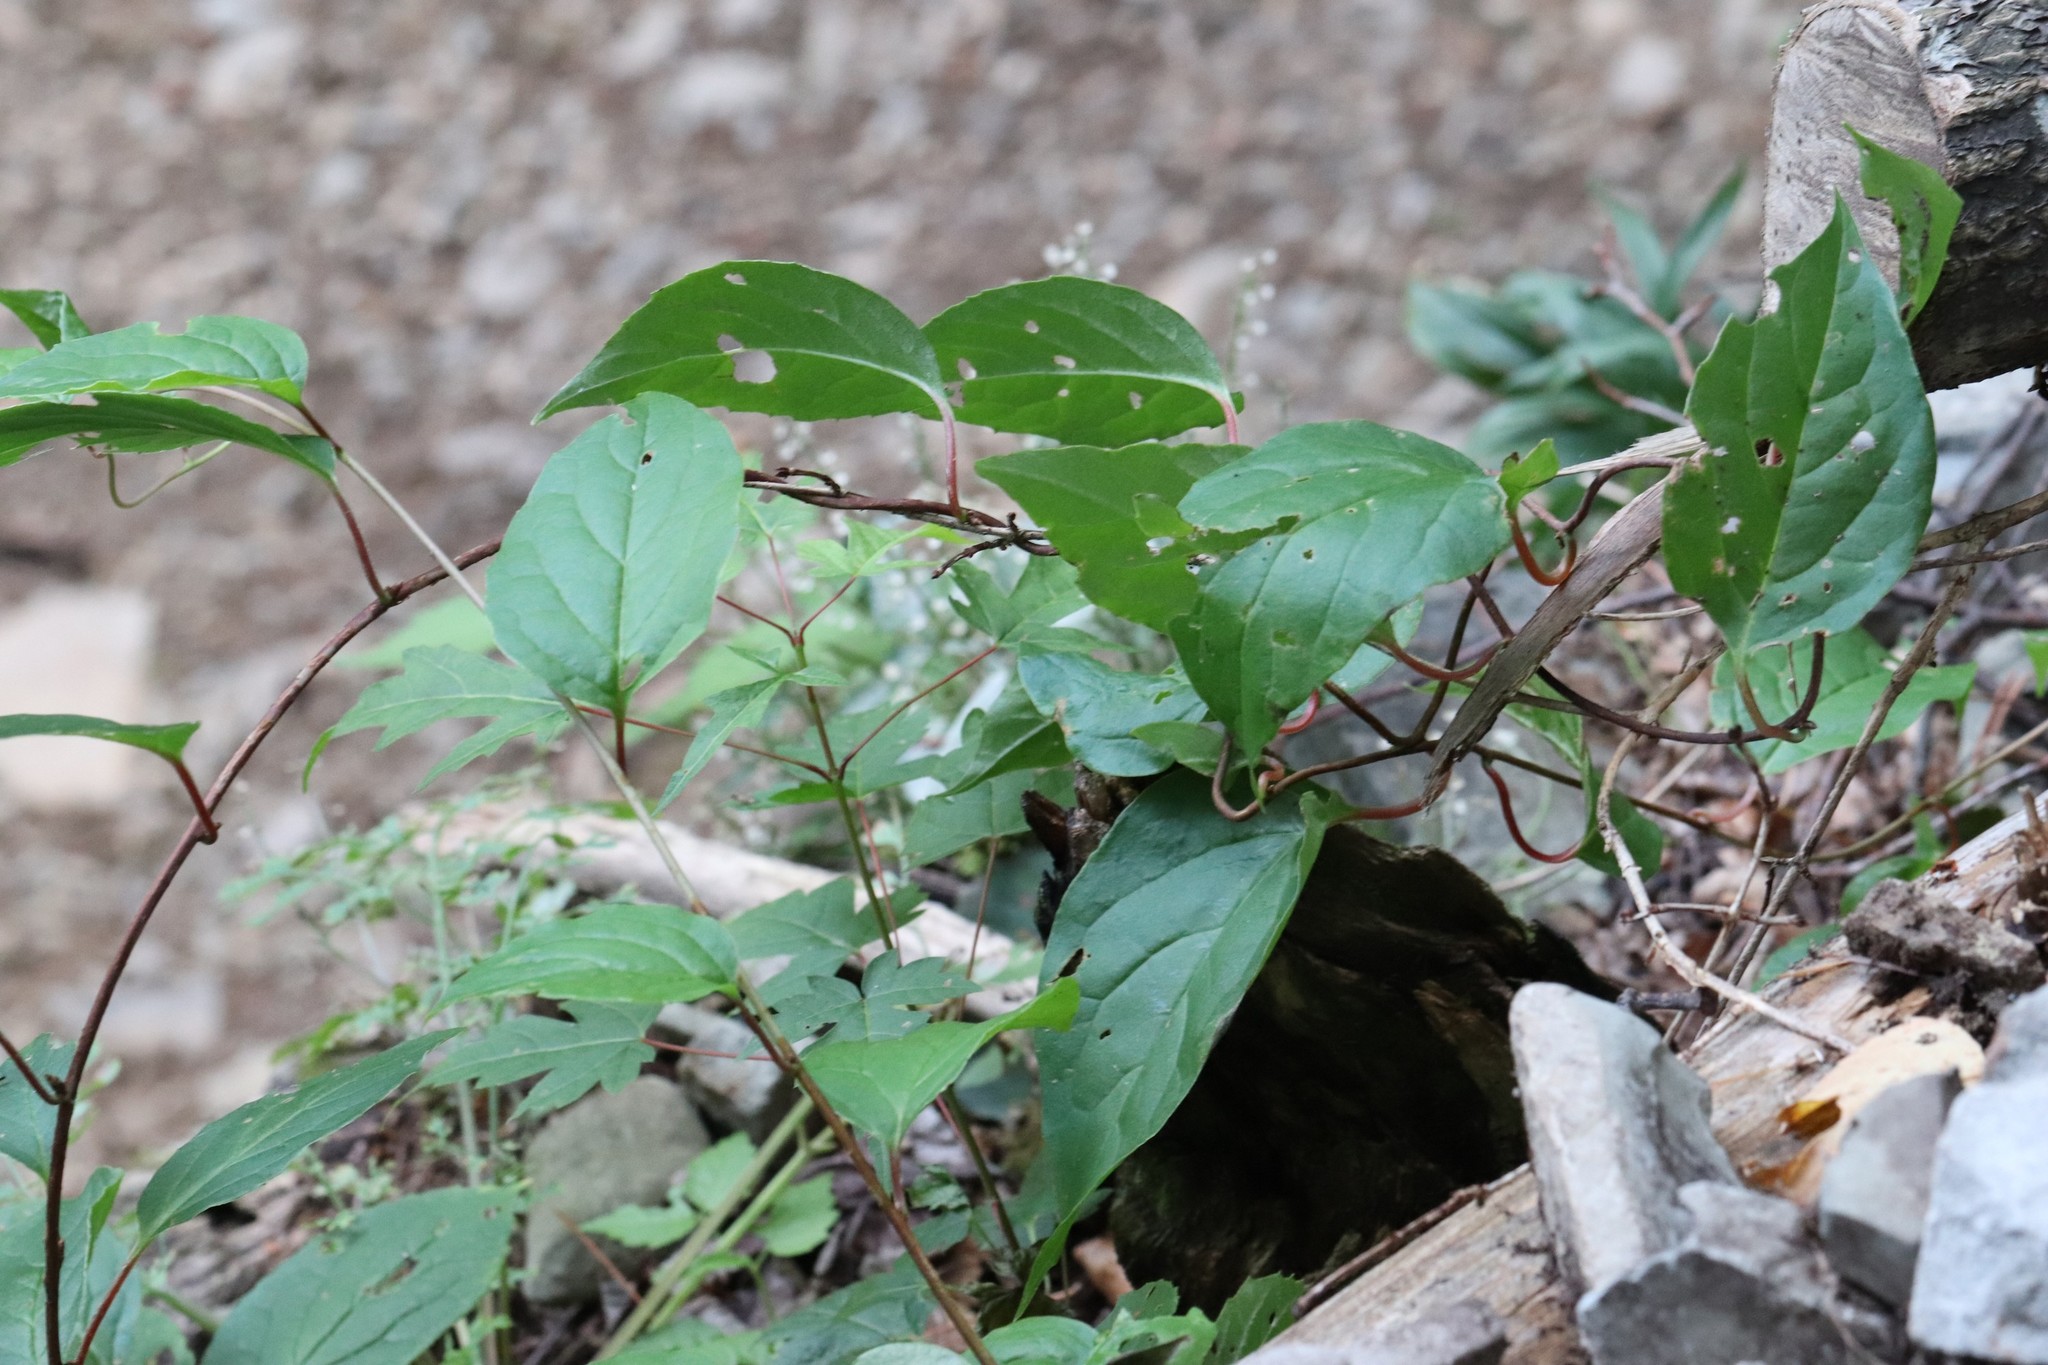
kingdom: Plantae
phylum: Tracheophyta
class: Magnoliopsida
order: Austrobaileyales
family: Schisandraceae
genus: Schisandra
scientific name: Schisandra chinensis
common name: Magnolia-vine
